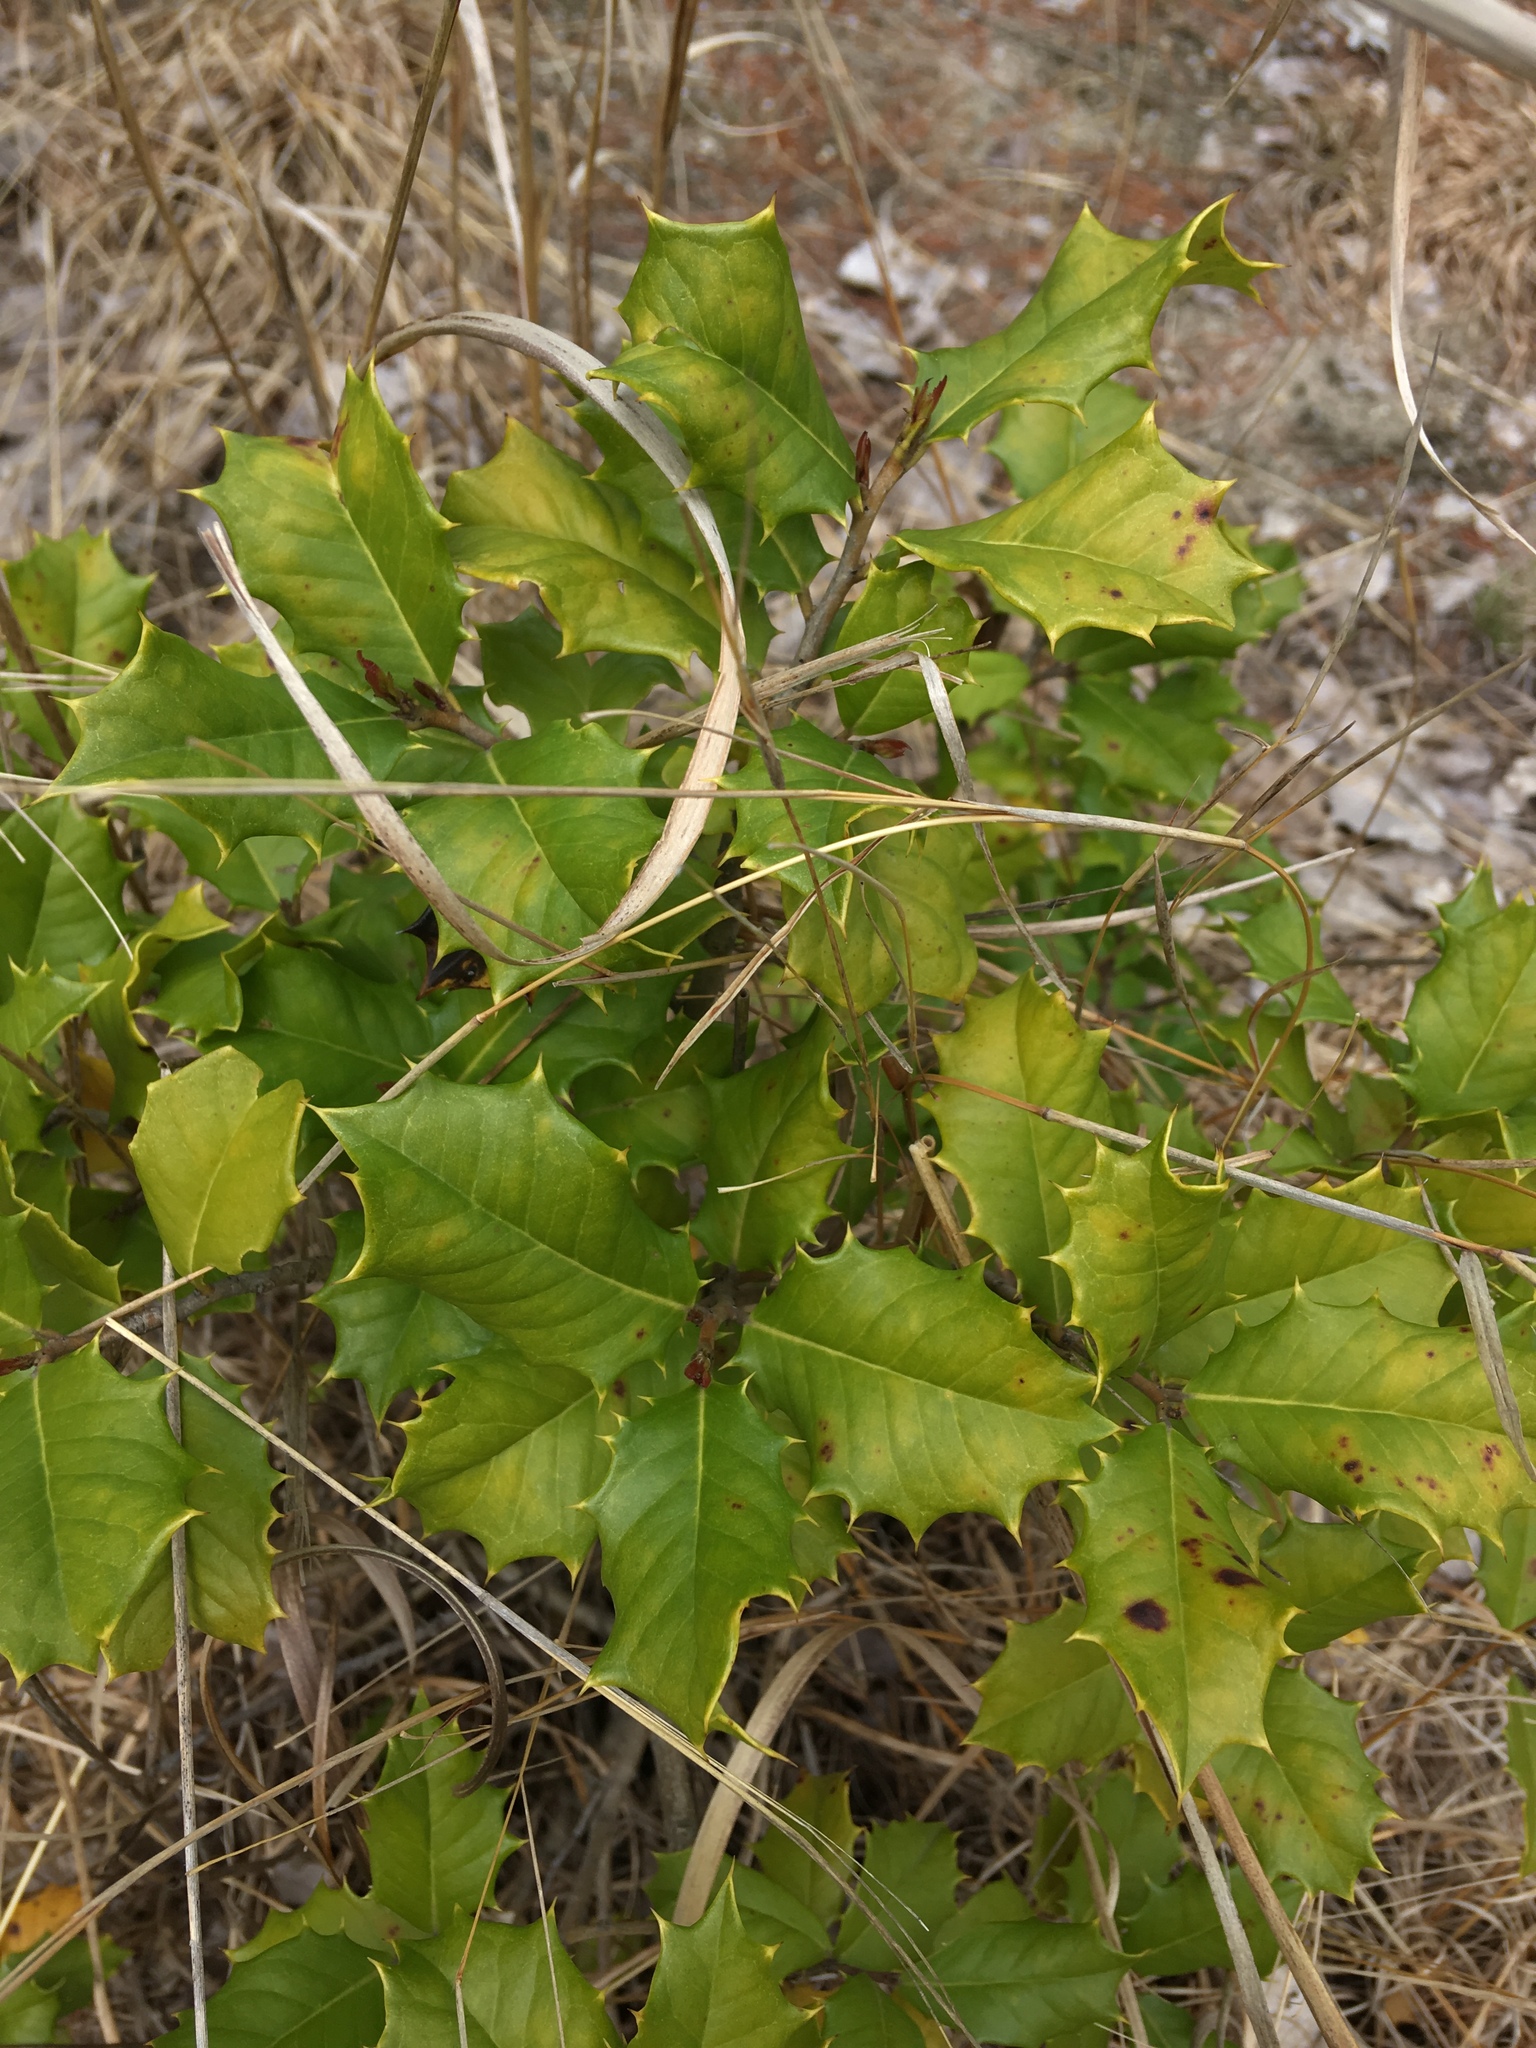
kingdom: Plantae
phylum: Tracheophyta
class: Magnoliopsida
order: Aquifoliales
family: Aquifoliaceae
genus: Ilex
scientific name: Ilex opaca
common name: American holly
